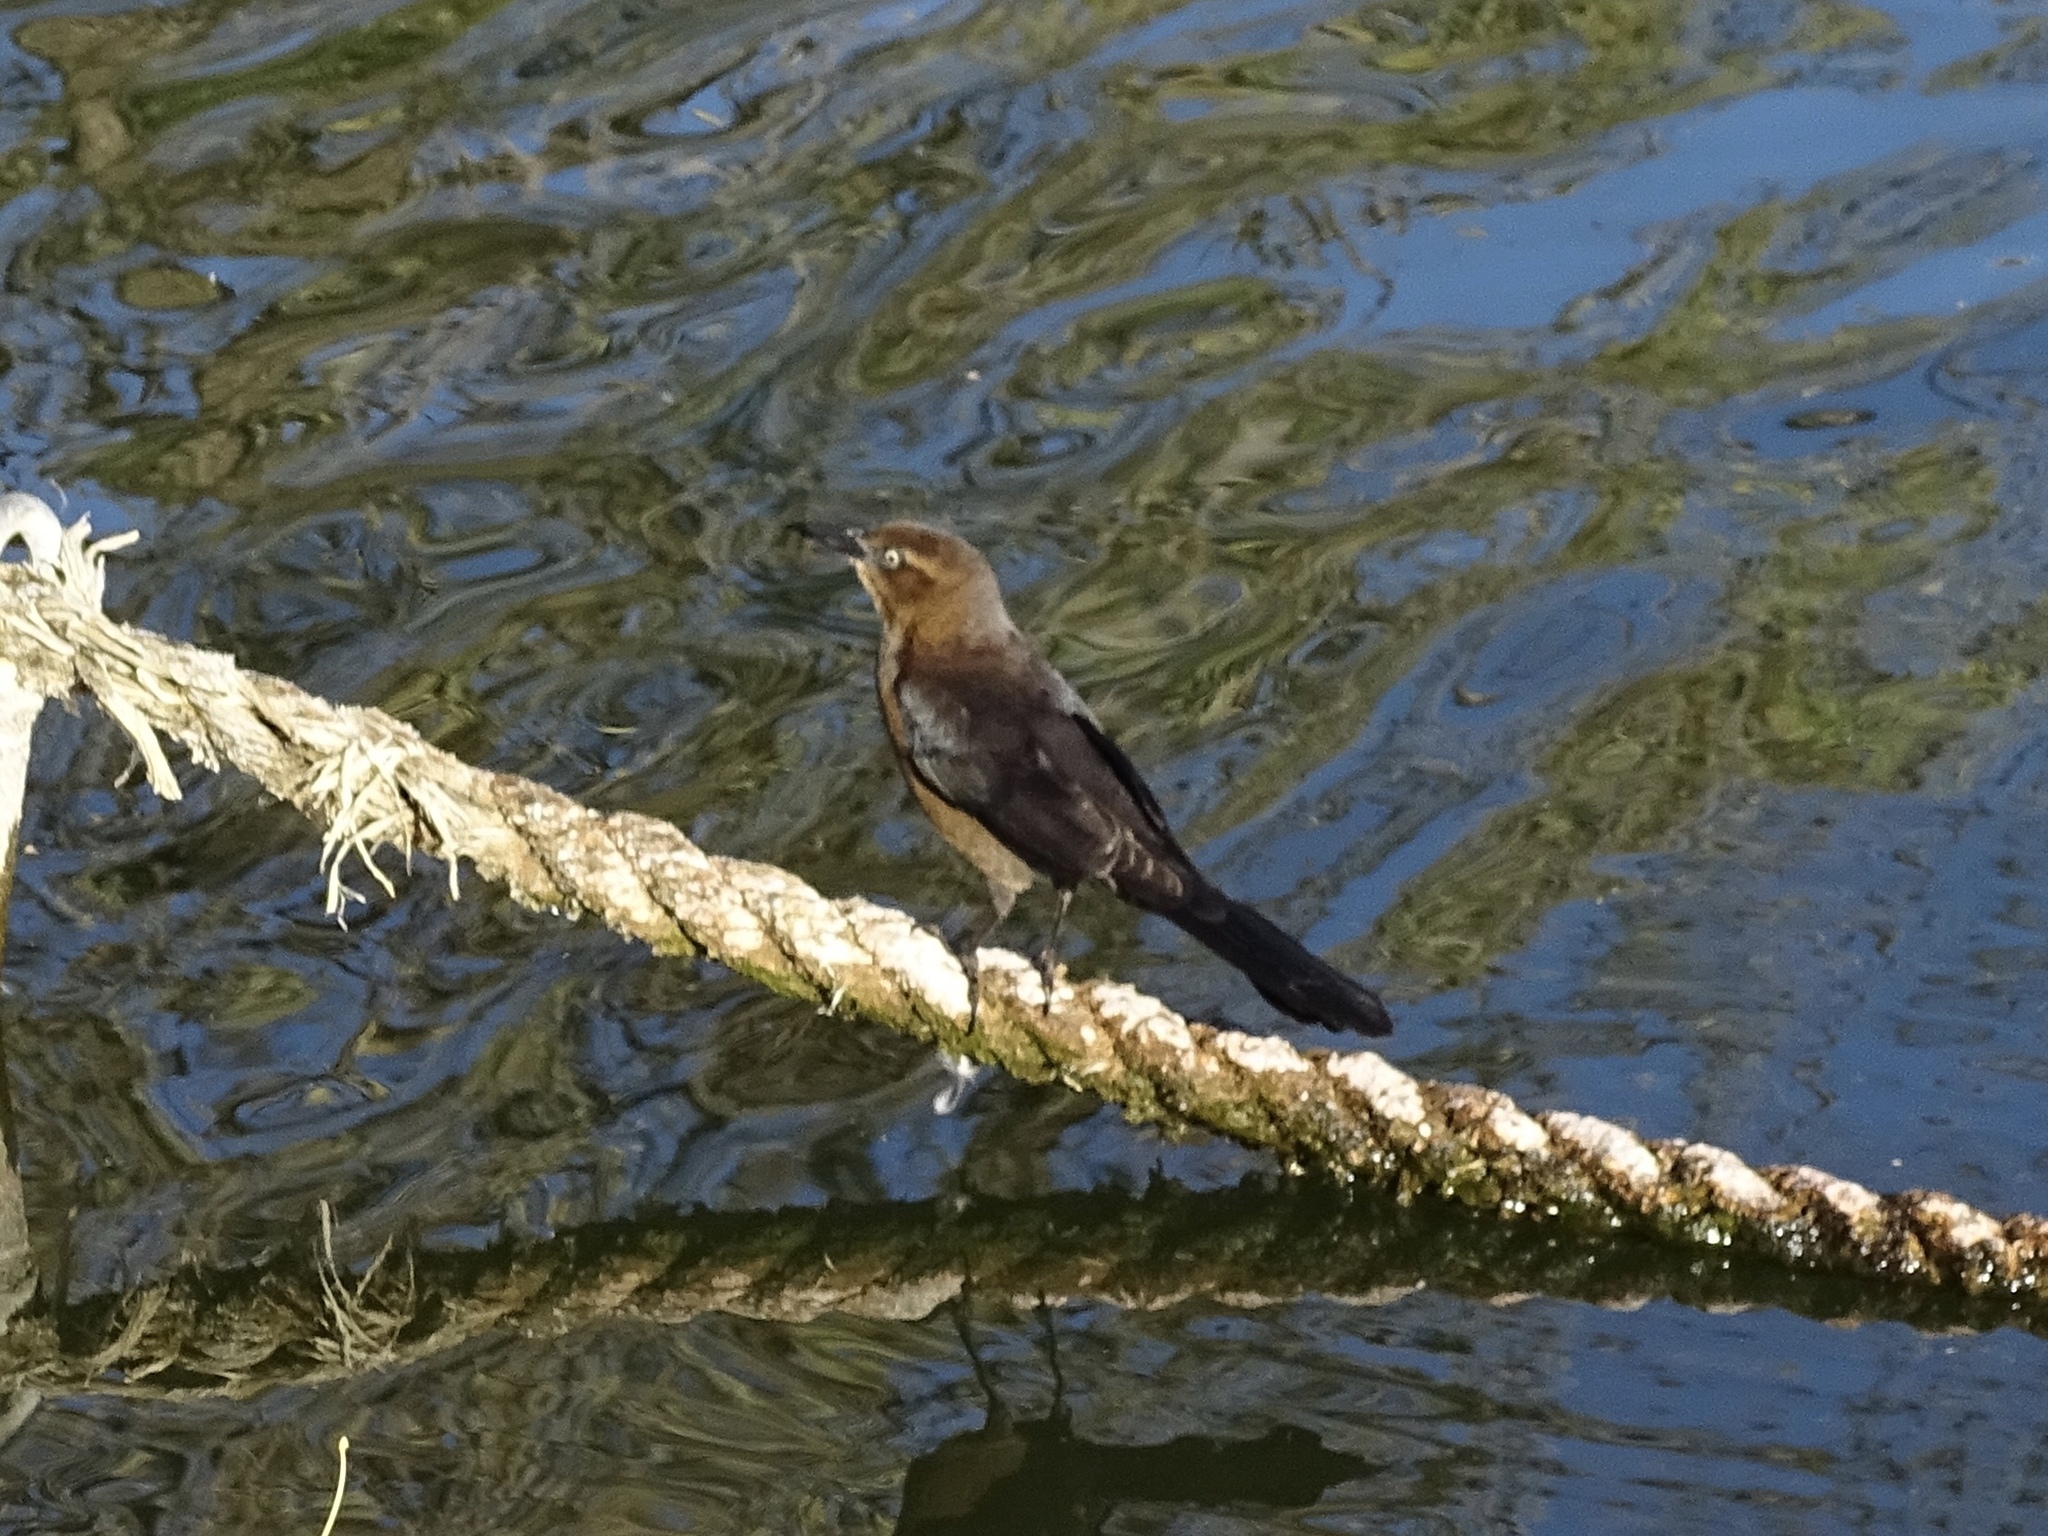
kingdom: Animalia
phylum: Chordata
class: Aves
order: Passeriformes
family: Icteridae
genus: Quiscalus
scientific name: Quiscalus mexicanus
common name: Great-tailed grackle
